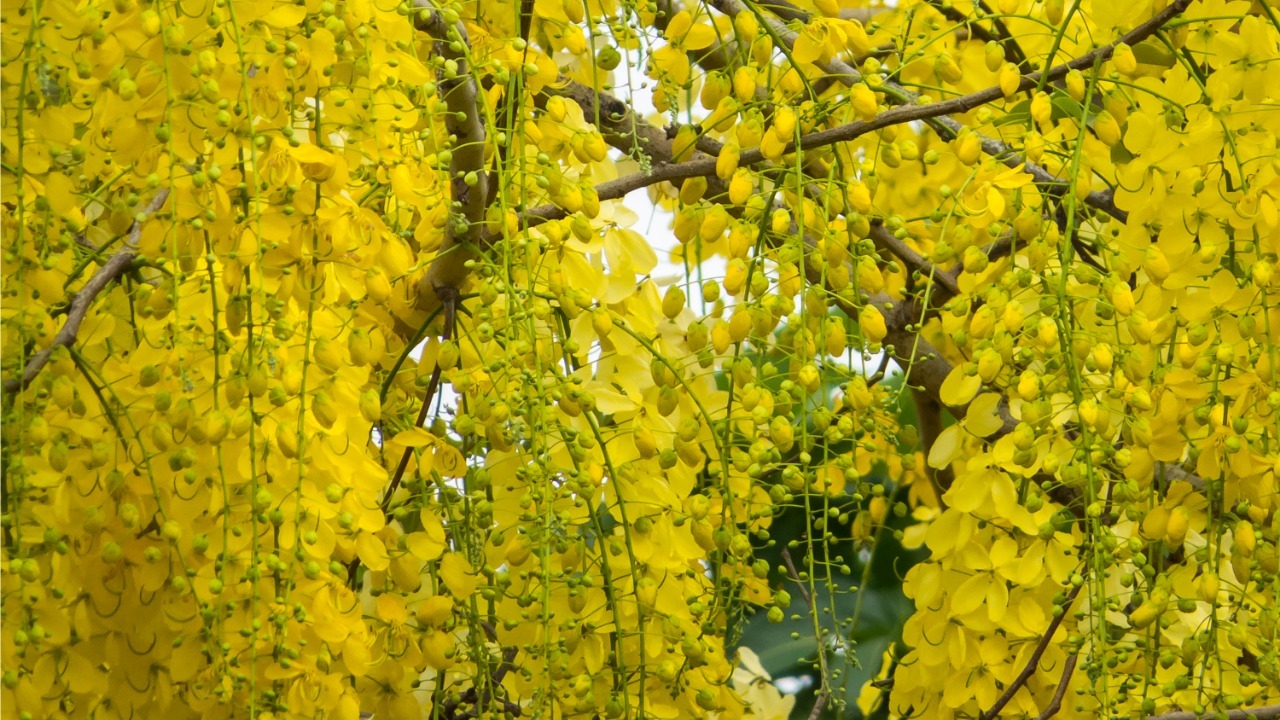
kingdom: Plantae
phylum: Tracheophyta
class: Magnoliopsida
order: Fabales
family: Fabaceae
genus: Cassia
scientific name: Cassia fistula
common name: Golden shower
